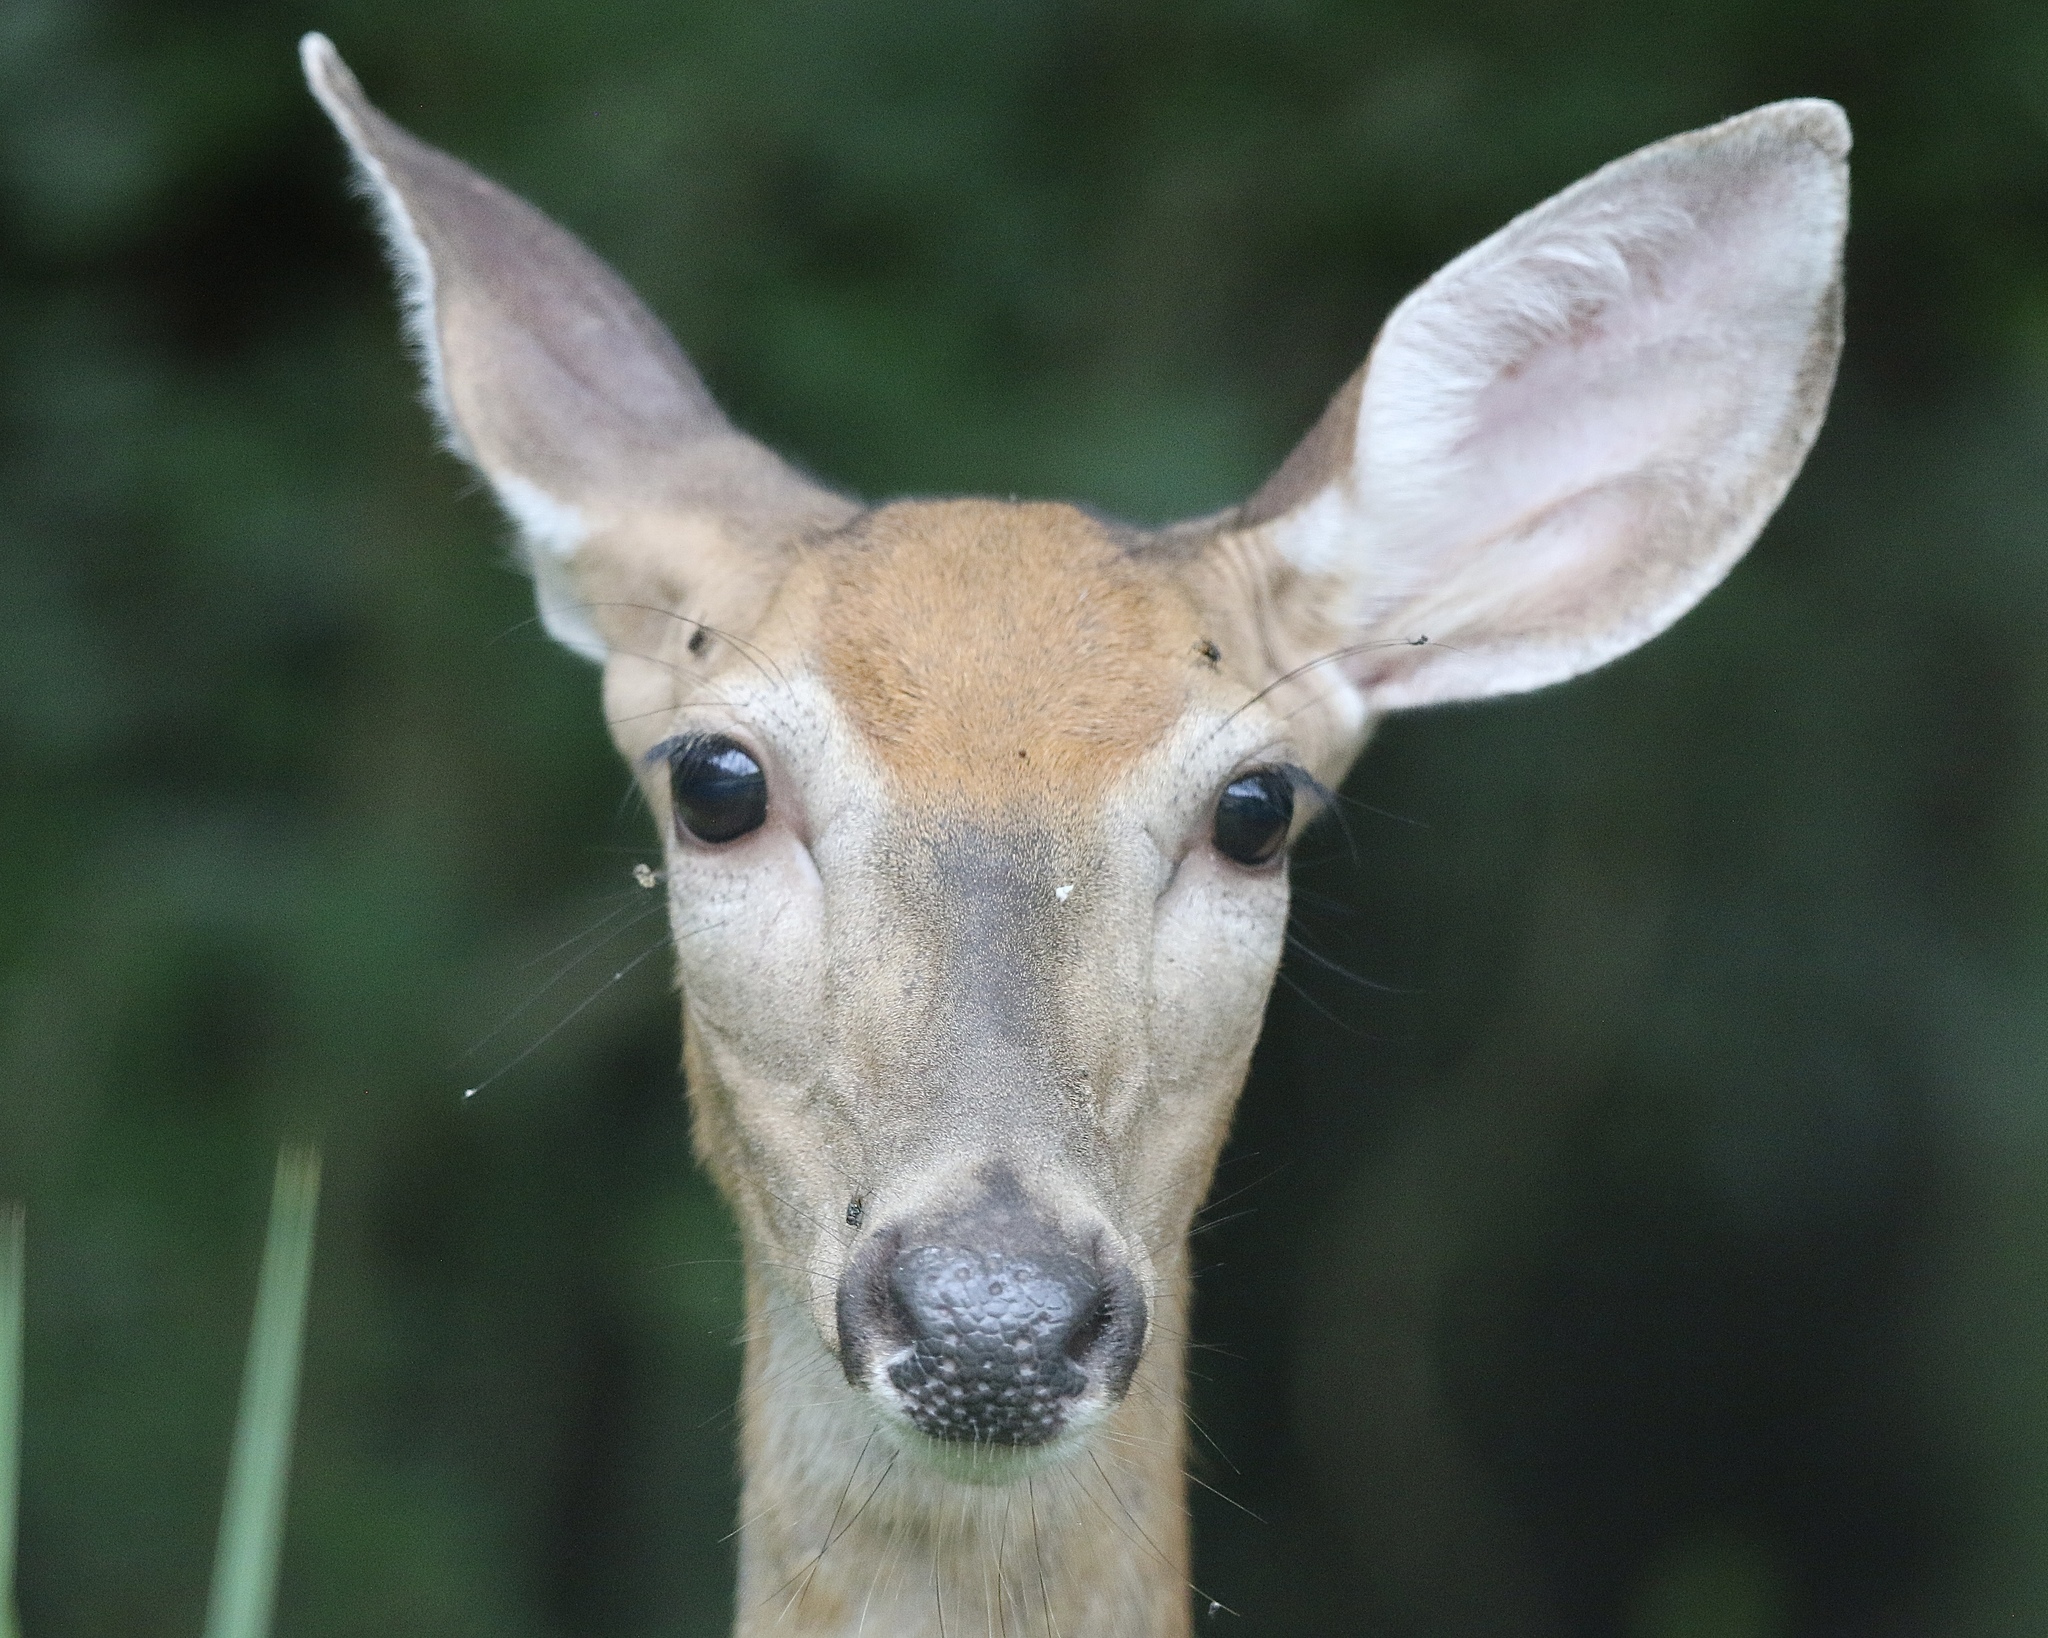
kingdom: Animalia
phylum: Chordata
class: Mammalia
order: Artiodactyla
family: Cervidae
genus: Odocoileus
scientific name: Odocoileus virginianus
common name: White-tailed deer
